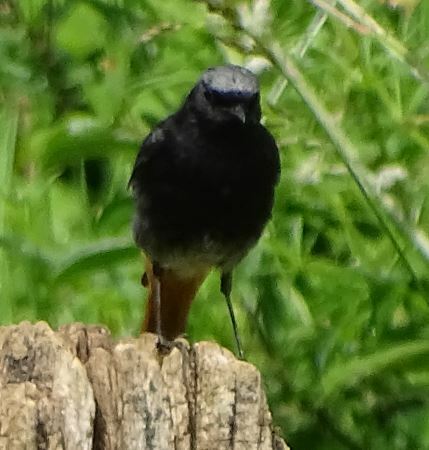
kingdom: Animalia
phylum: Chordata
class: Aves
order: Passeriformes
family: Muscicapidae
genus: Phoenicurus
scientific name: Phoenicurus ochruros
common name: Black redstart
